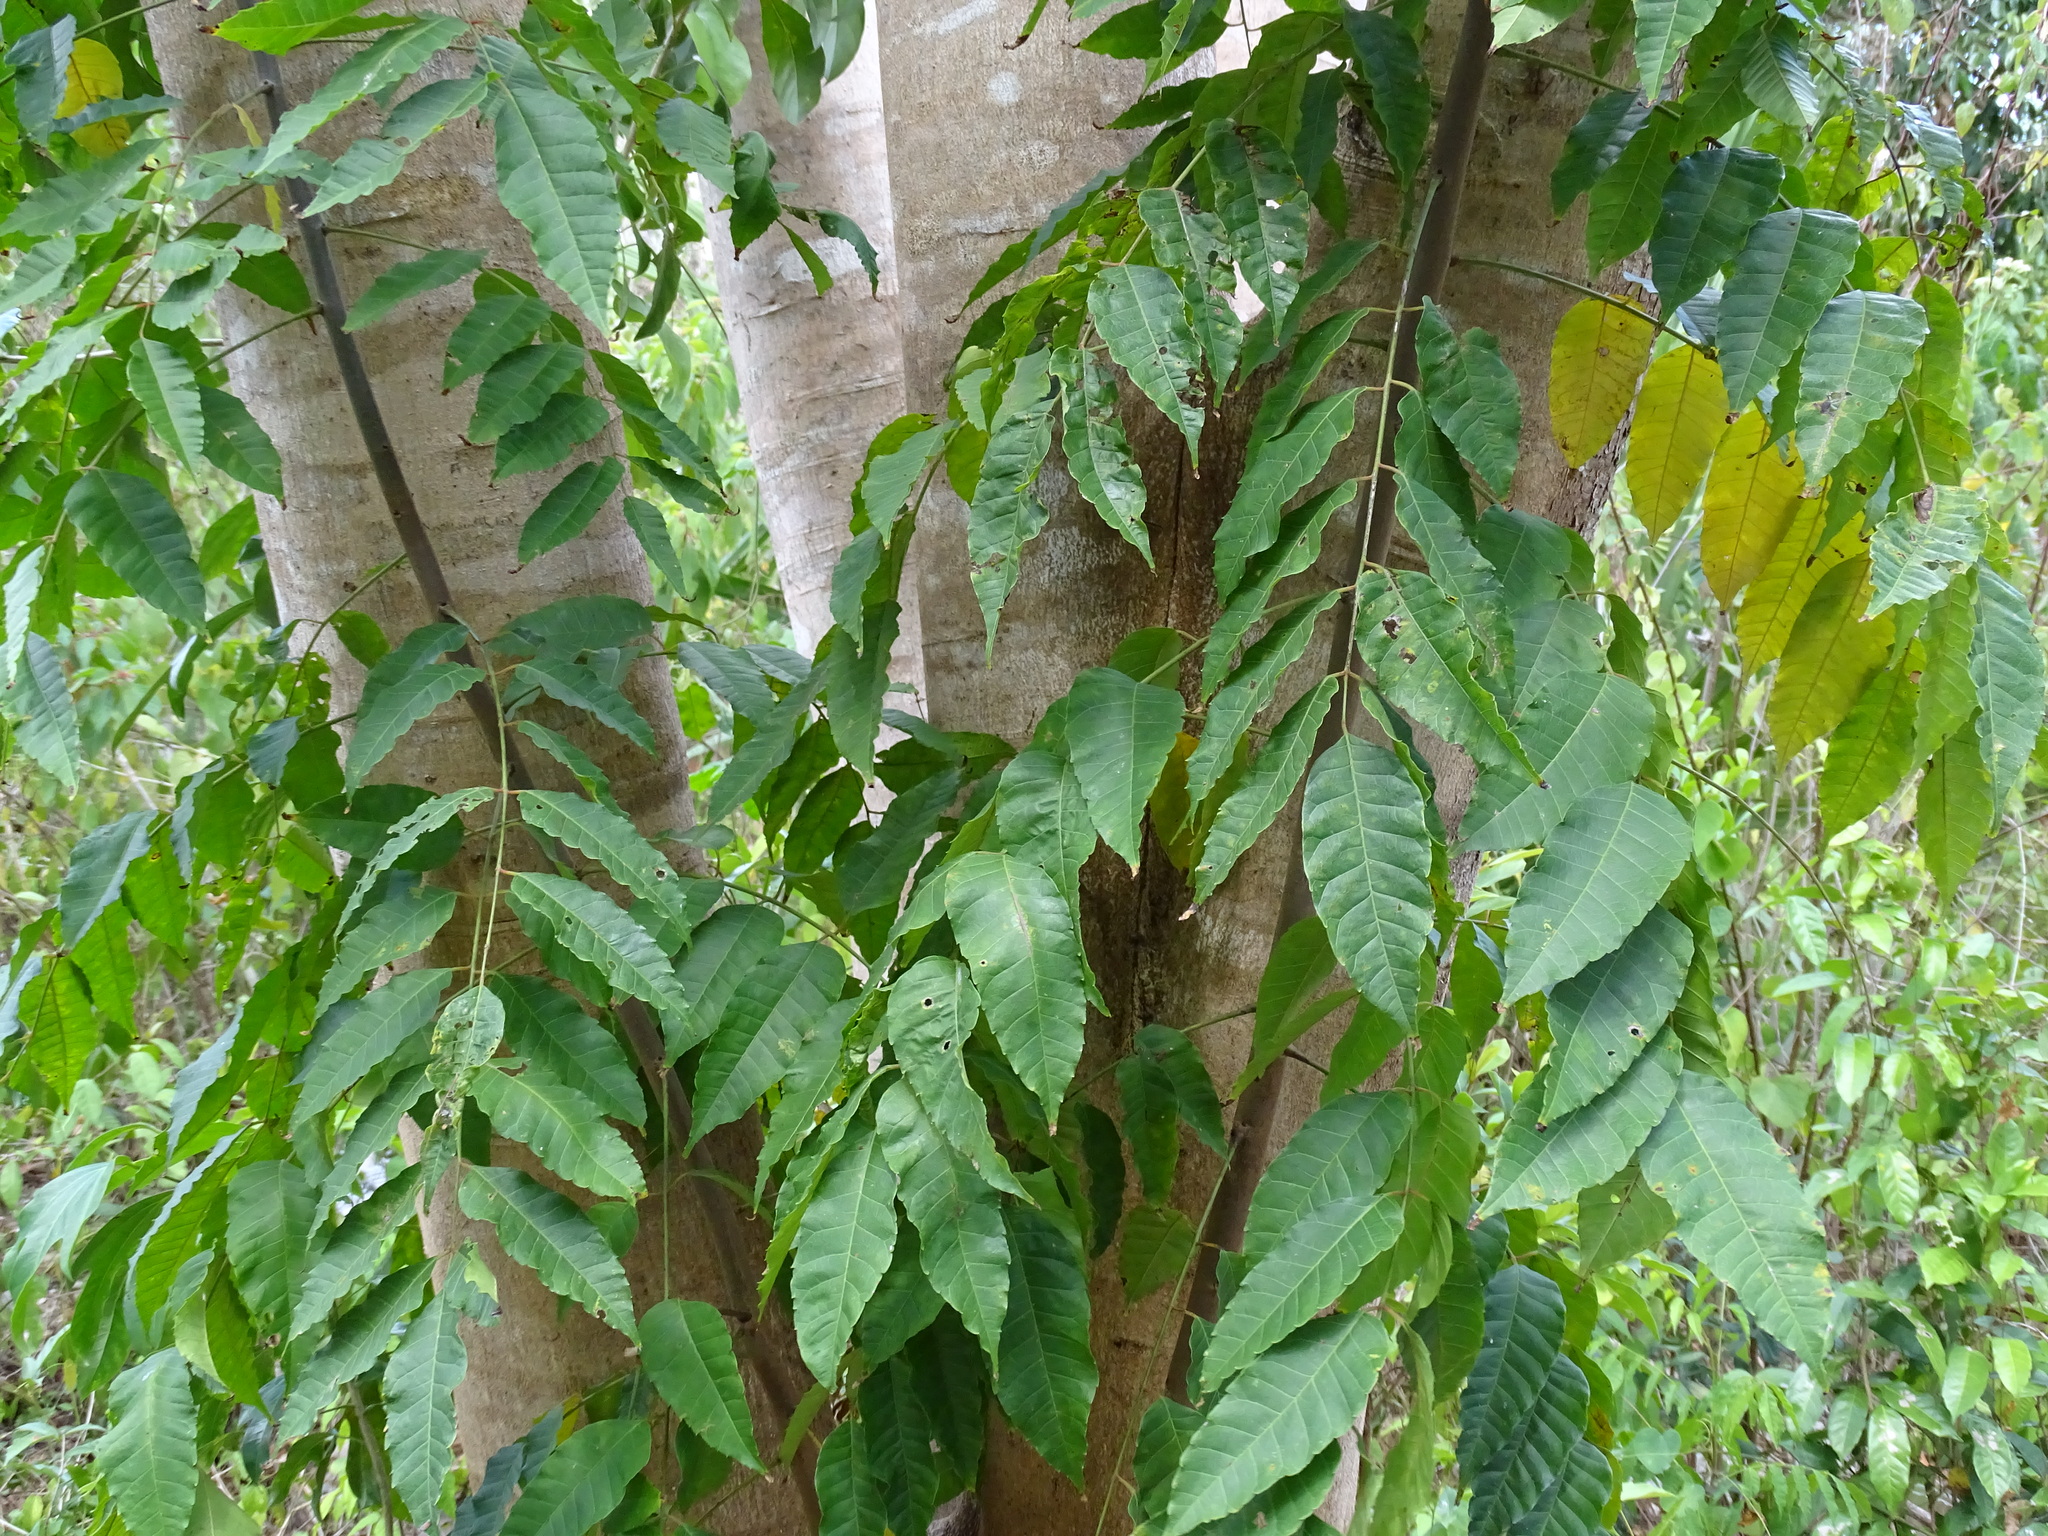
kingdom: Plantae
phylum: Tracheophyta
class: Magnoliopsida
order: Sapindales
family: Anacardiaceae
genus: Astronium
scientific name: Astronium graveolens
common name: Glassywood
